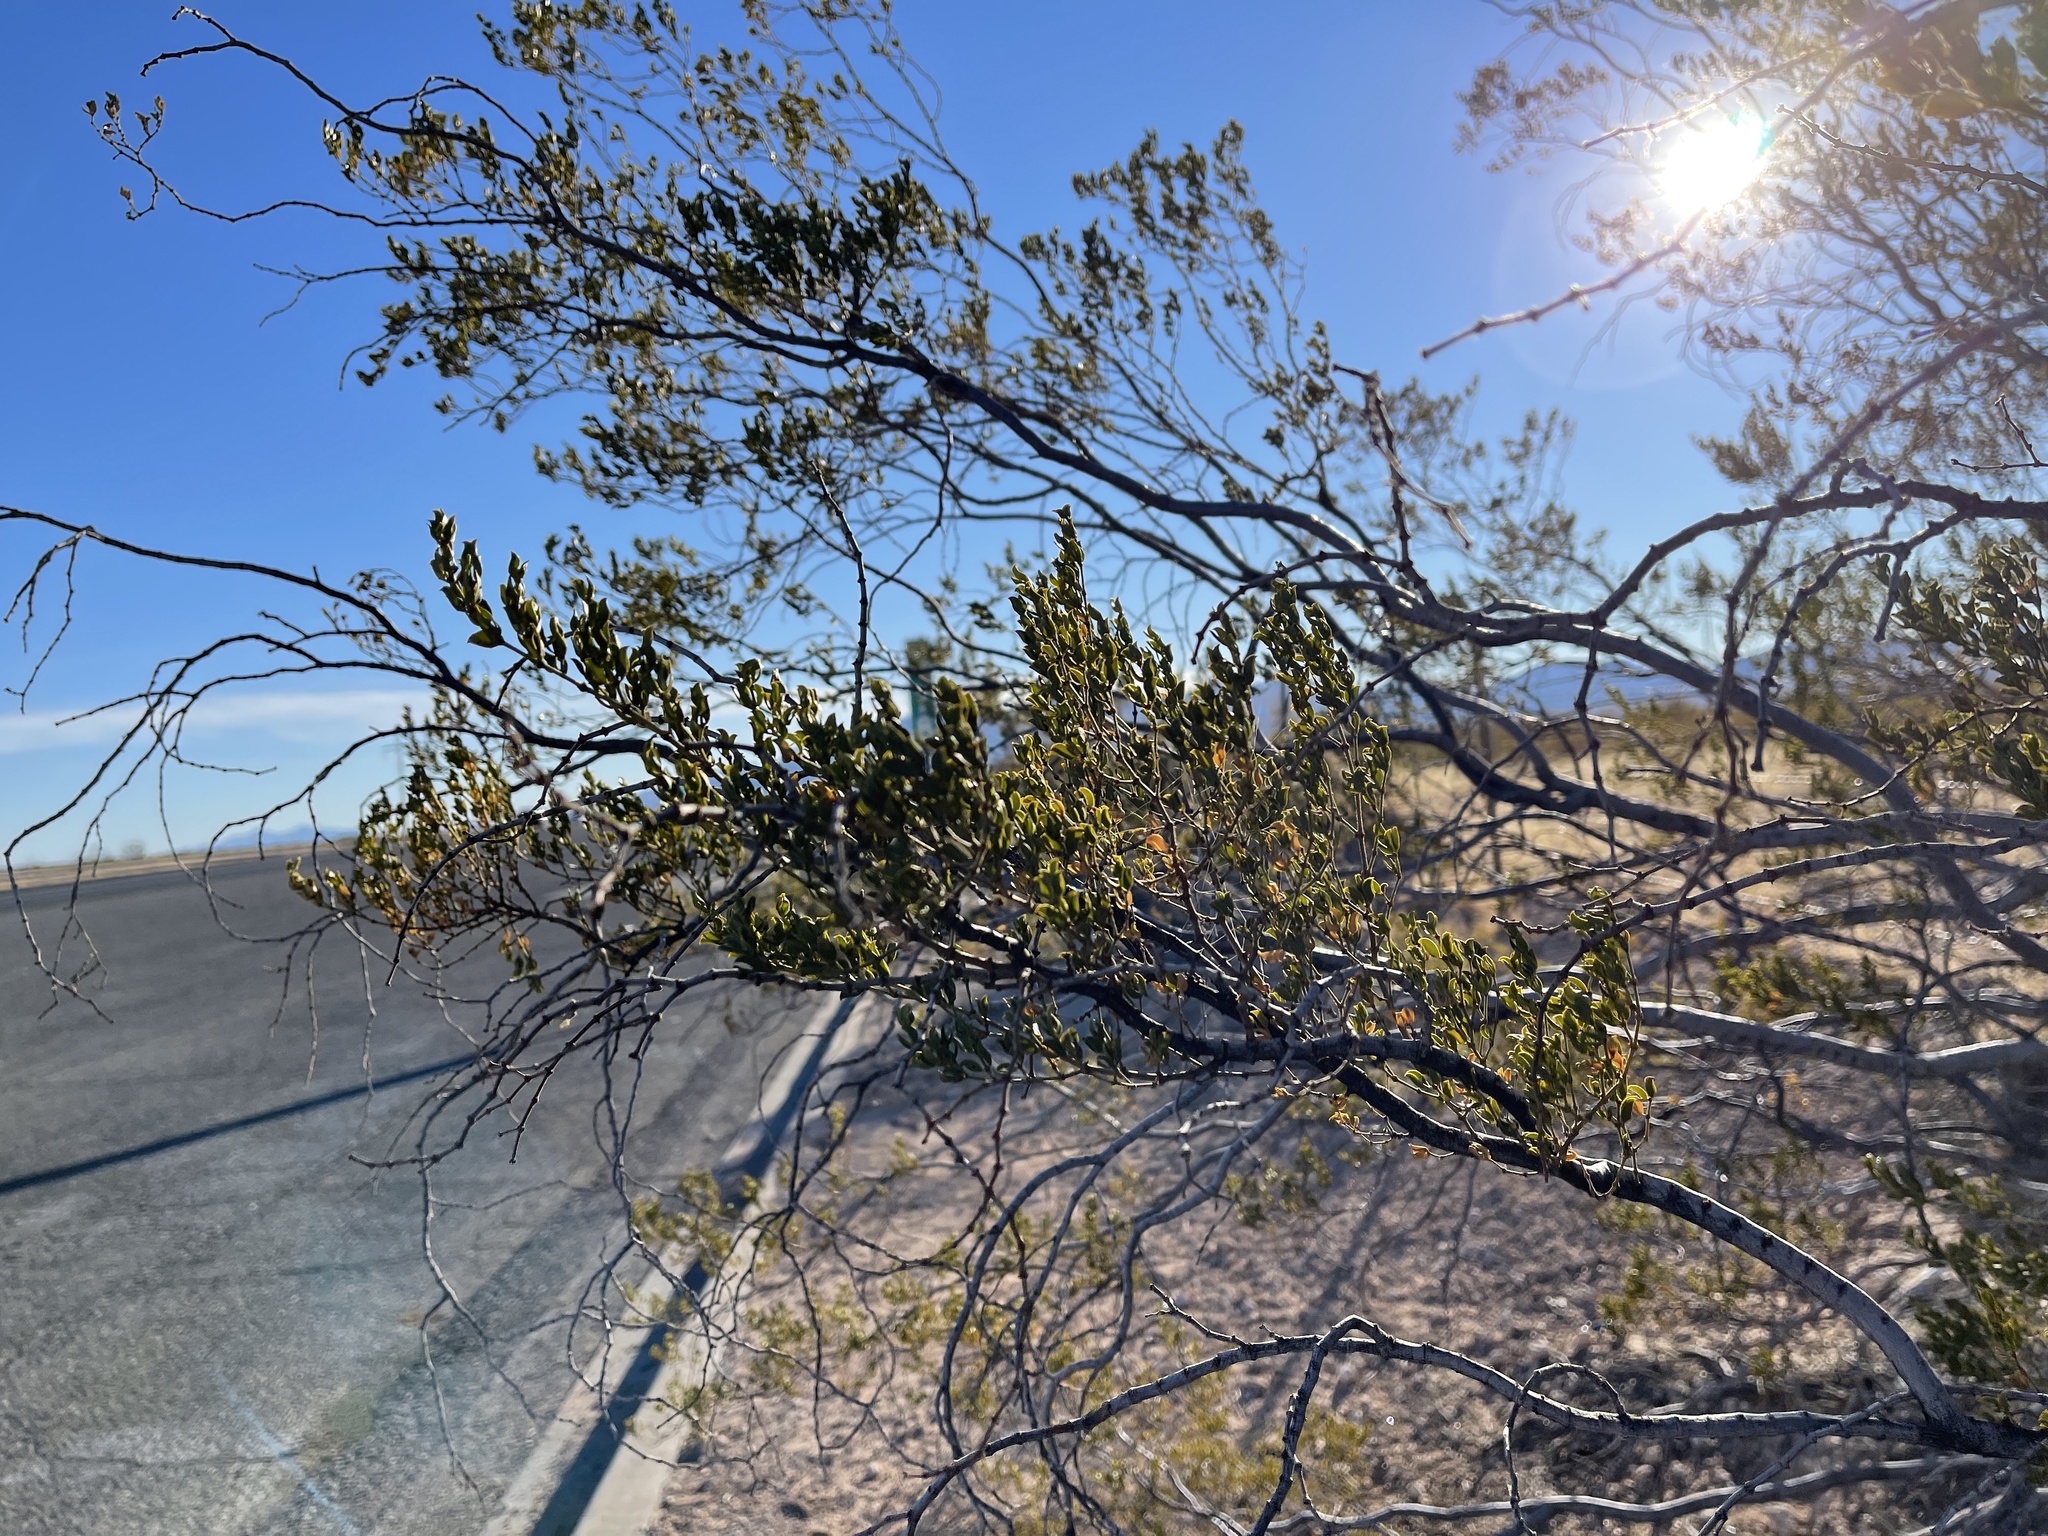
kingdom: Plantae
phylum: Tracheophyta
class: Magnoliopsida
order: Zygophyllales
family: Zygophyllaceae
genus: Larrea
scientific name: Larrea tridentata
